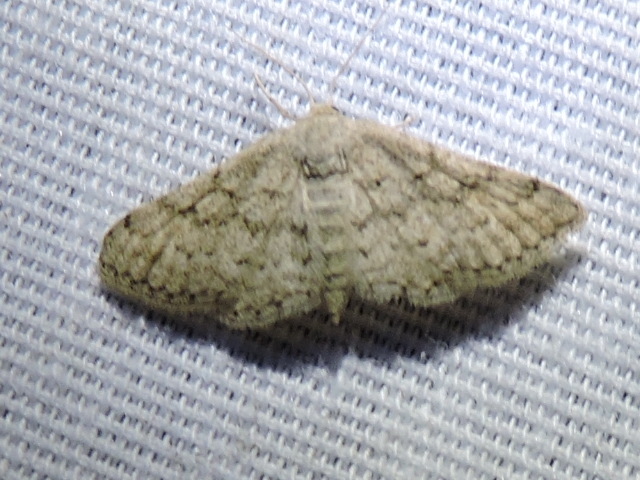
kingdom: Animalia
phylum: Arthropoda
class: Insecta
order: Lepidoptera
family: Geometridae
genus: Lobocleta
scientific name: Lobocleta ossularia
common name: Drab brown wave
